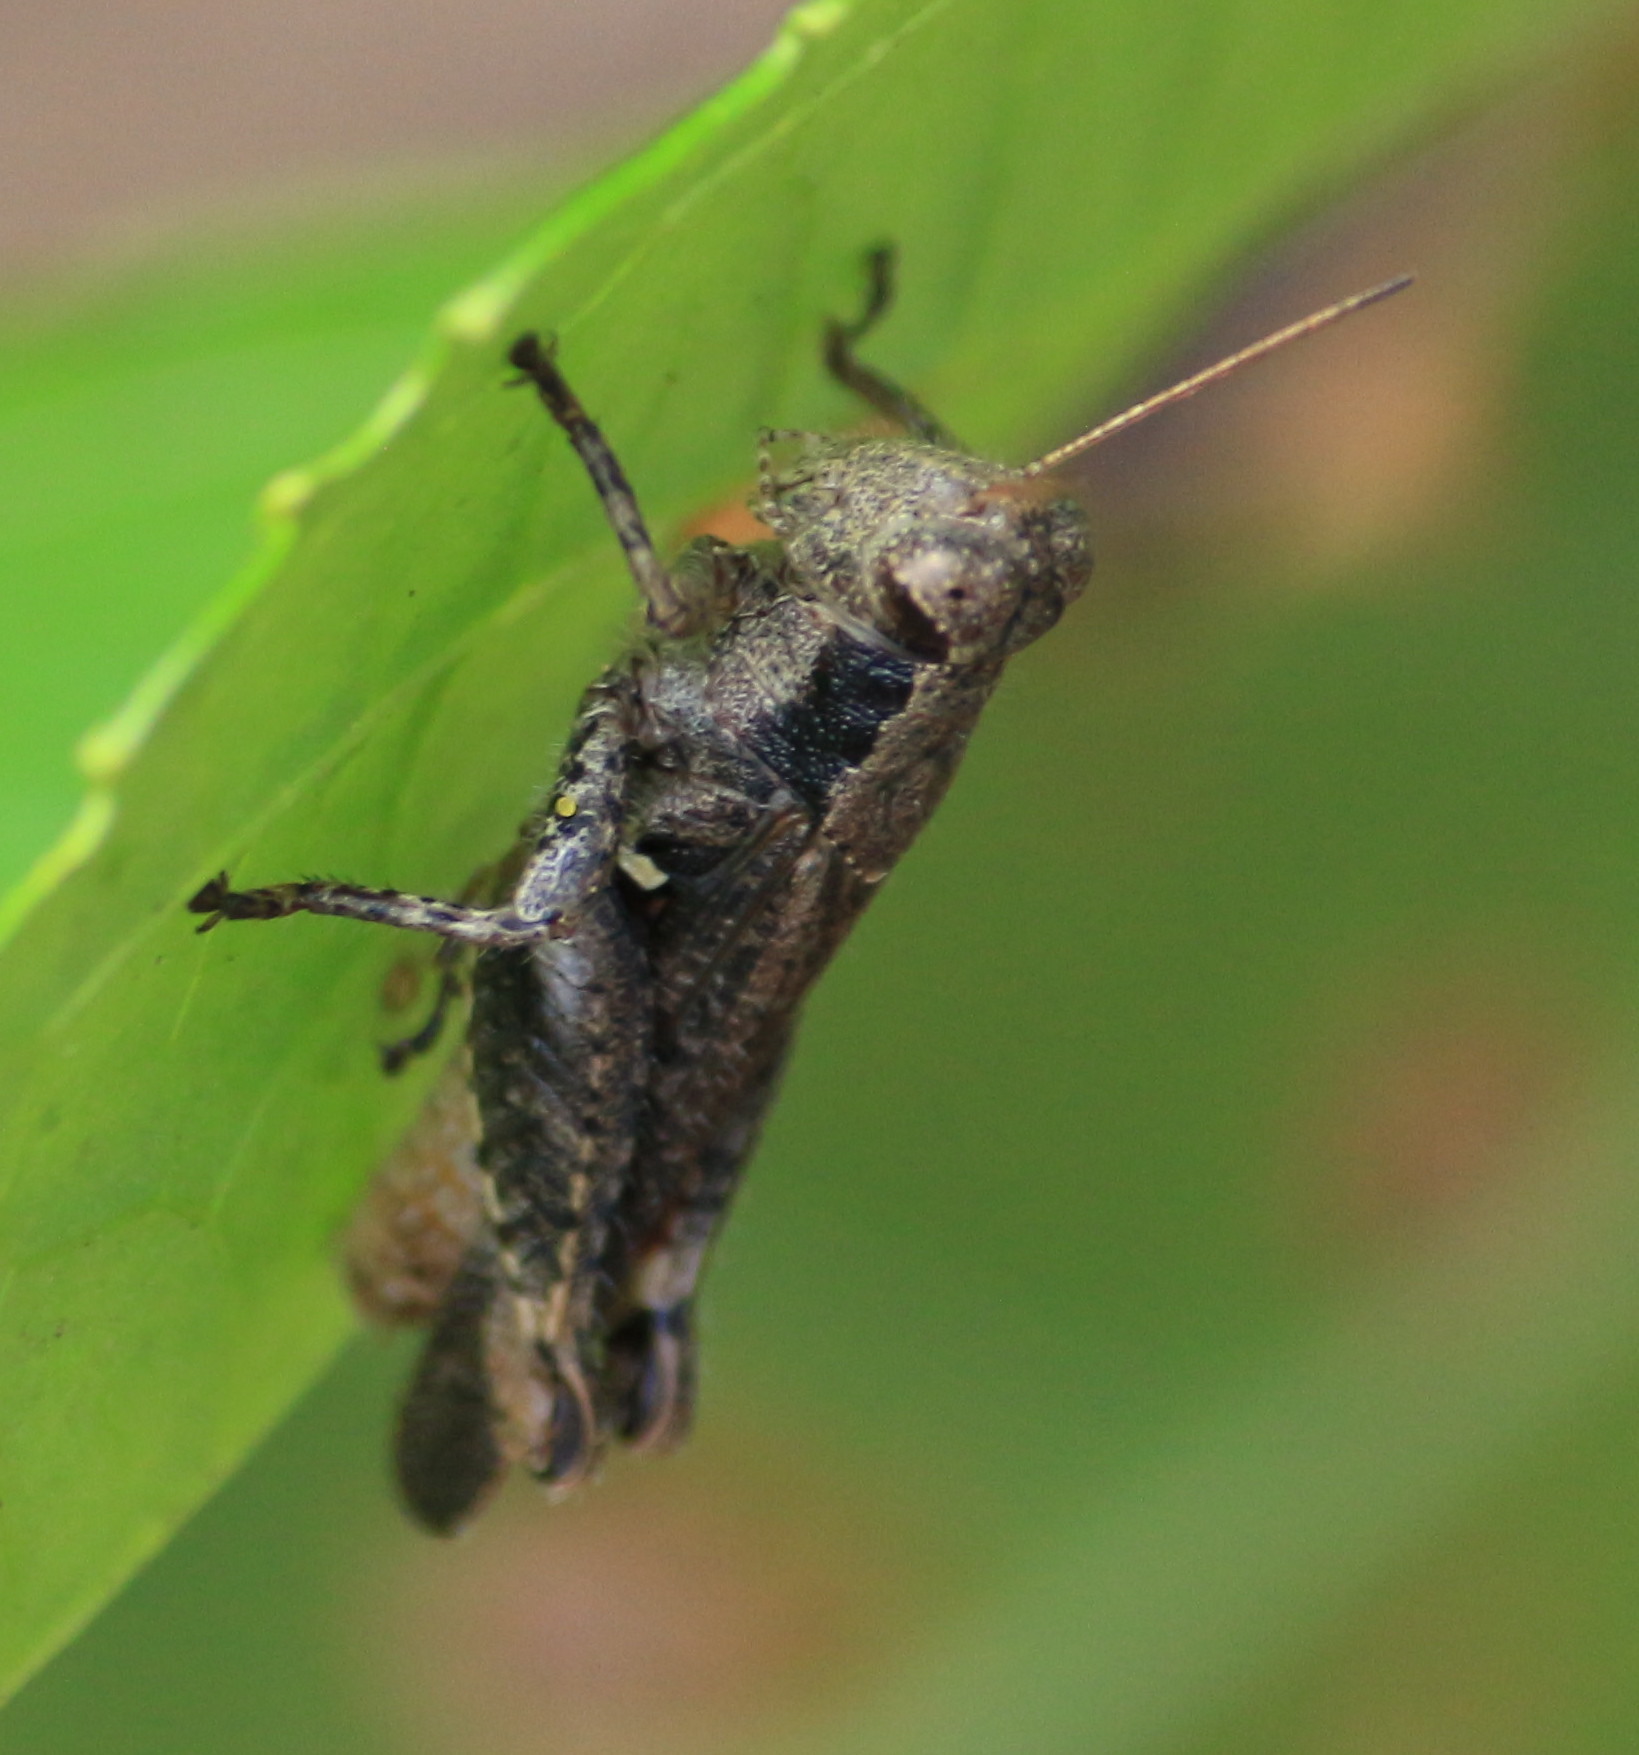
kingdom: Animalia
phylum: Arthropoda
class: Insecta
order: Orthoptera
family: Acrididae
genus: Aidemona
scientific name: Aidemona azteca
